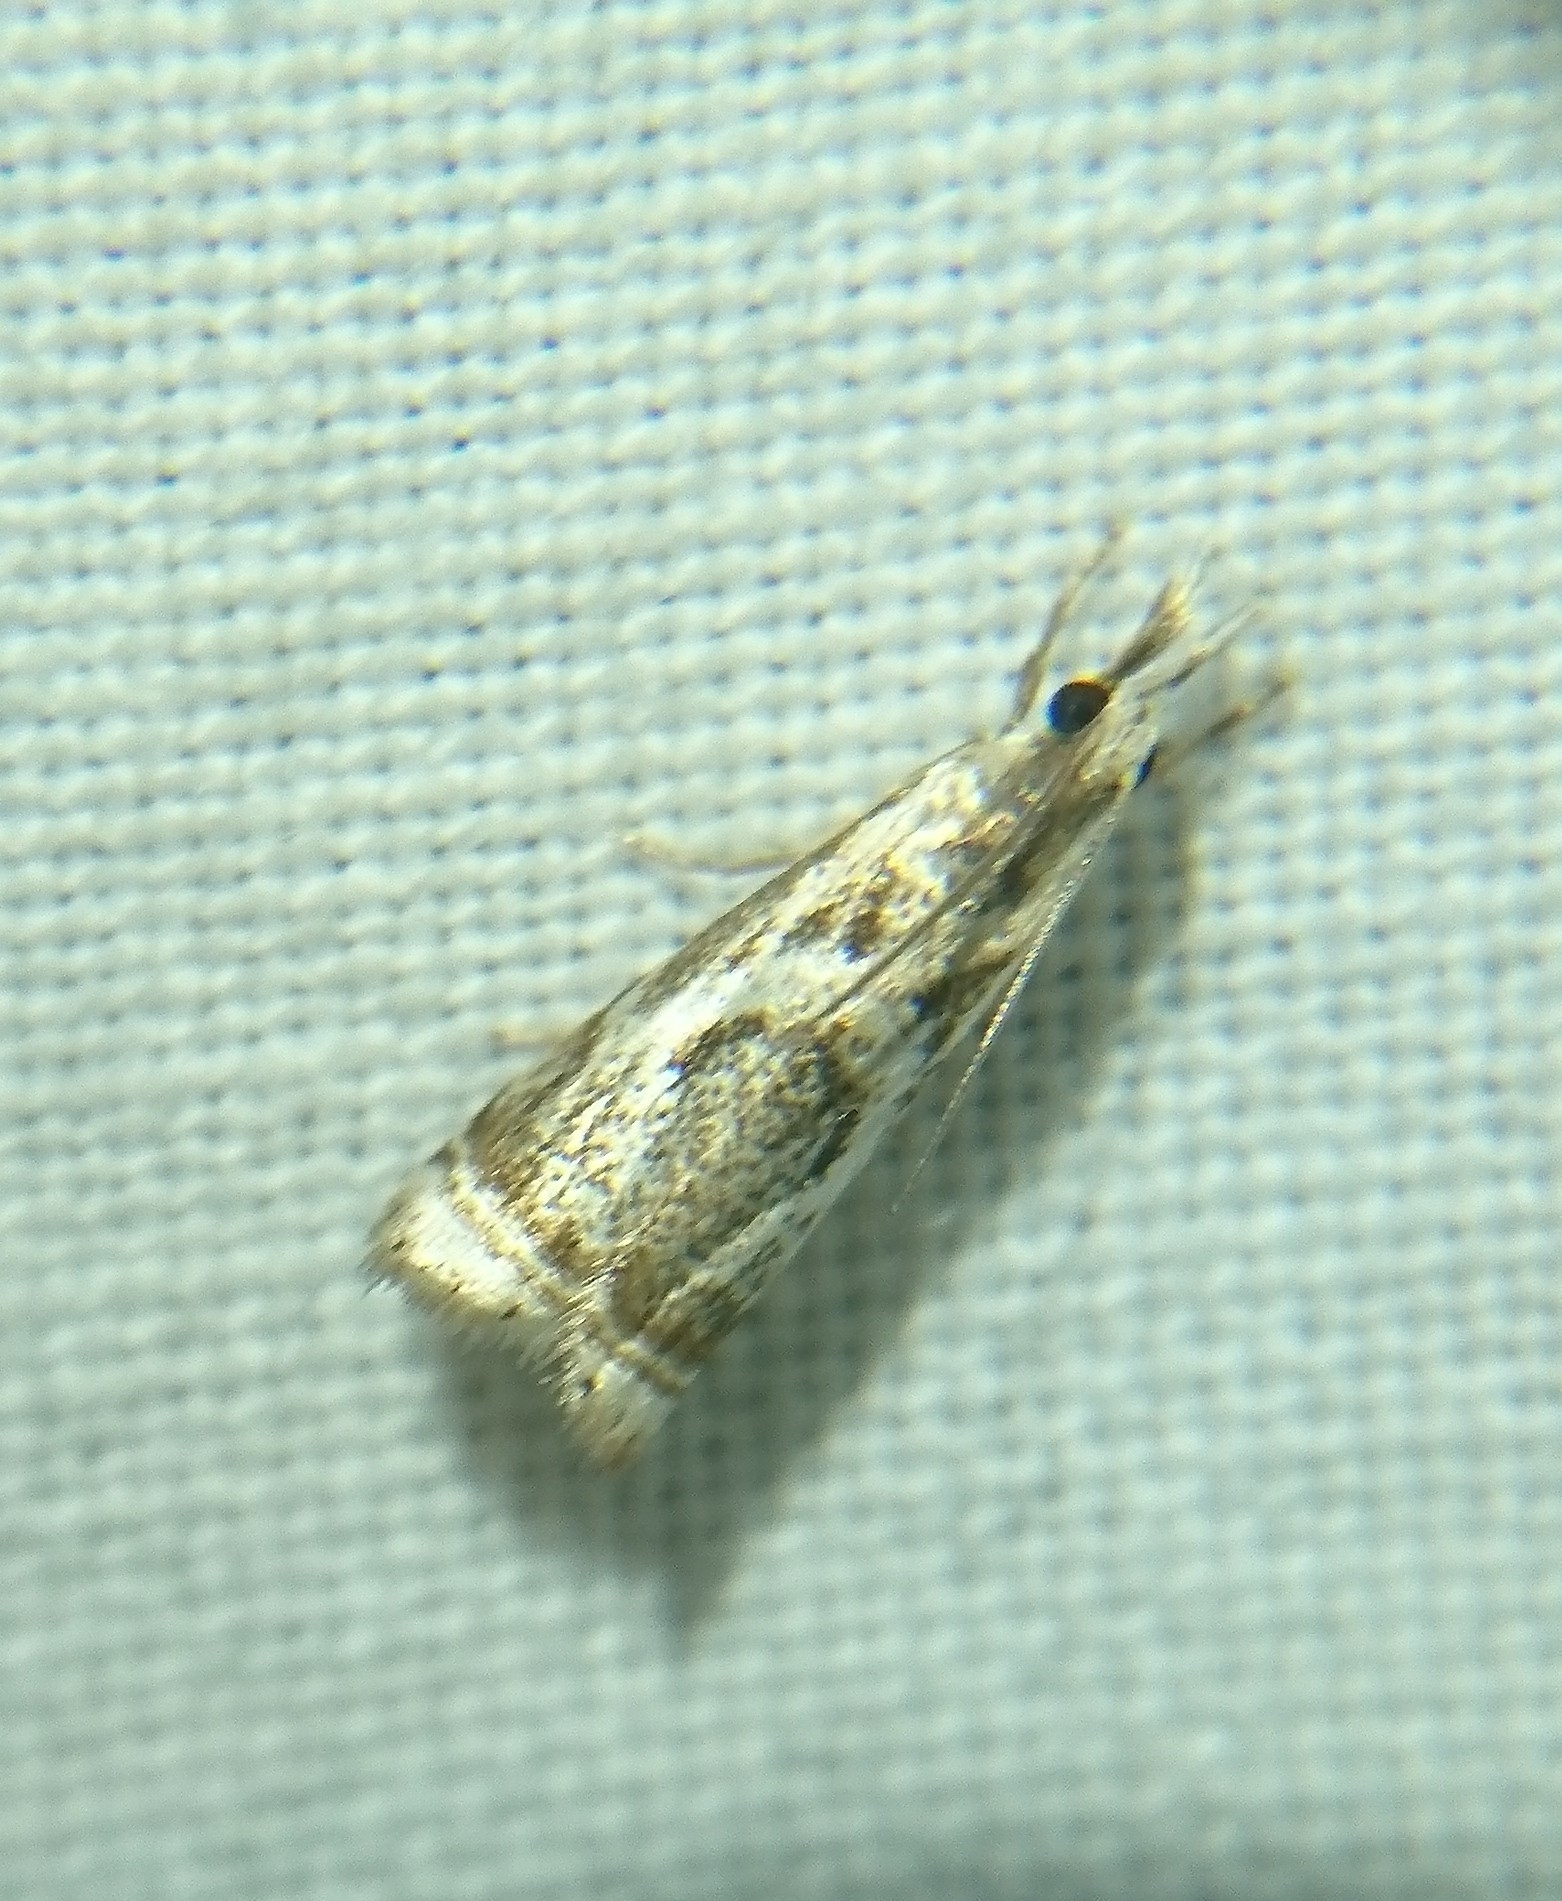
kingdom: Animalia
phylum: Arthropoda
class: Insecta
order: Lepidoptera
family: Crambidae
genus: Microcrambus
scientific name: Microcrambus elegans
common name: Elegant grass-veneer
